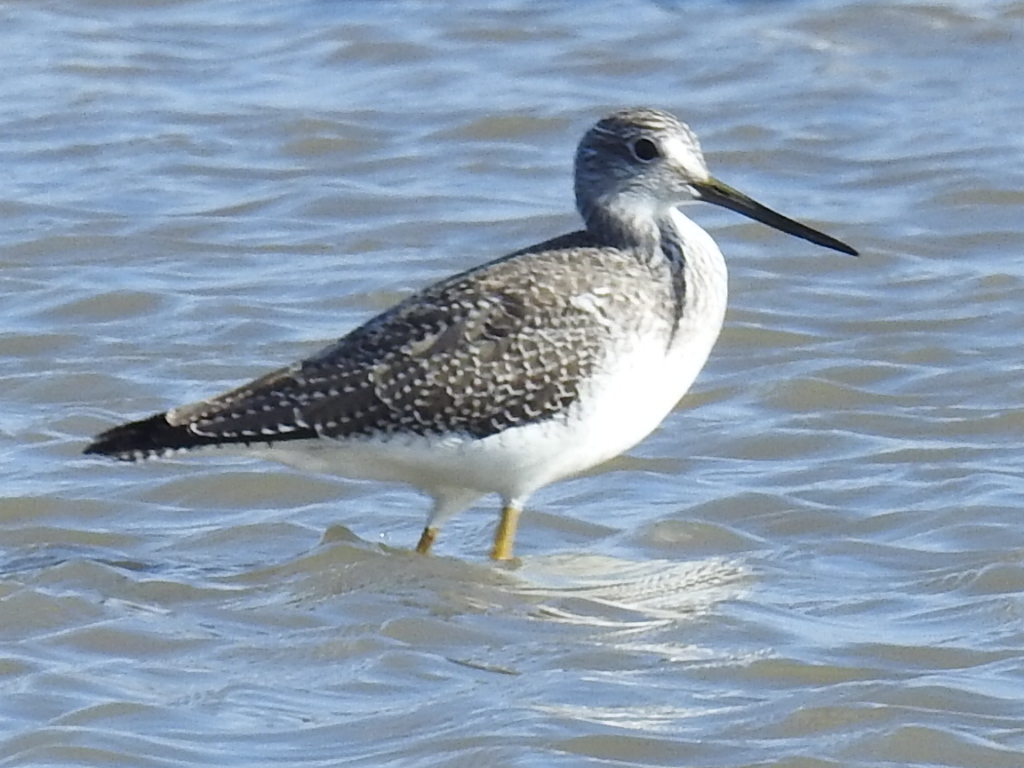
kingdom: Animalia
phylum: Chordata
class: Aves
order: Charadriiformes
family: Scolopacidae
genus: Tringa
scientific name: Tringa melanoleuca
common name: Greater yellowlegs
